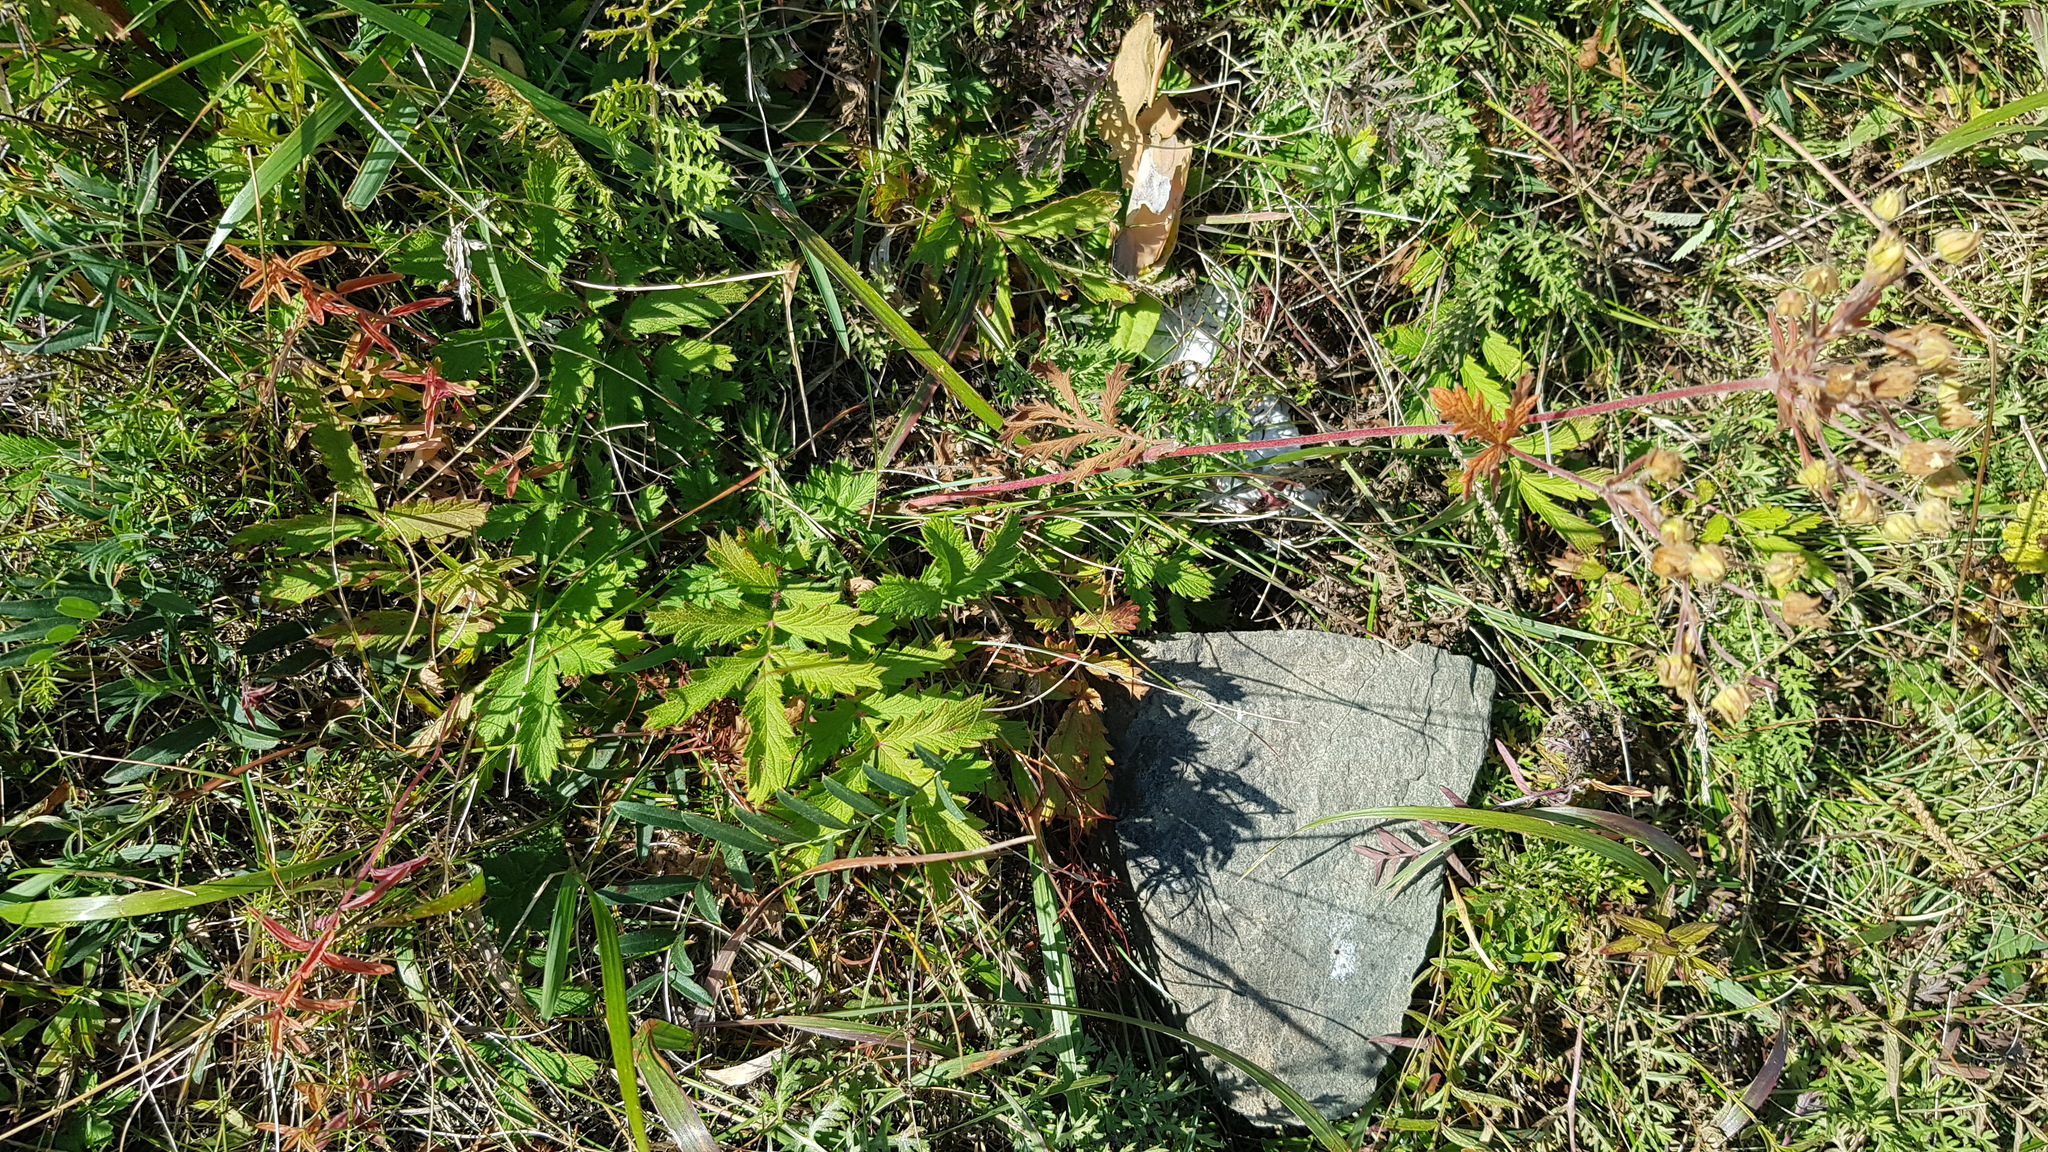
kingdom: Plantae
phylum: Tracheophyta
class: Magnoliopsida
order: Rosales
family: Rosaceae
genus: Potentilla
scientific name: Potentilla tanacetifolia
